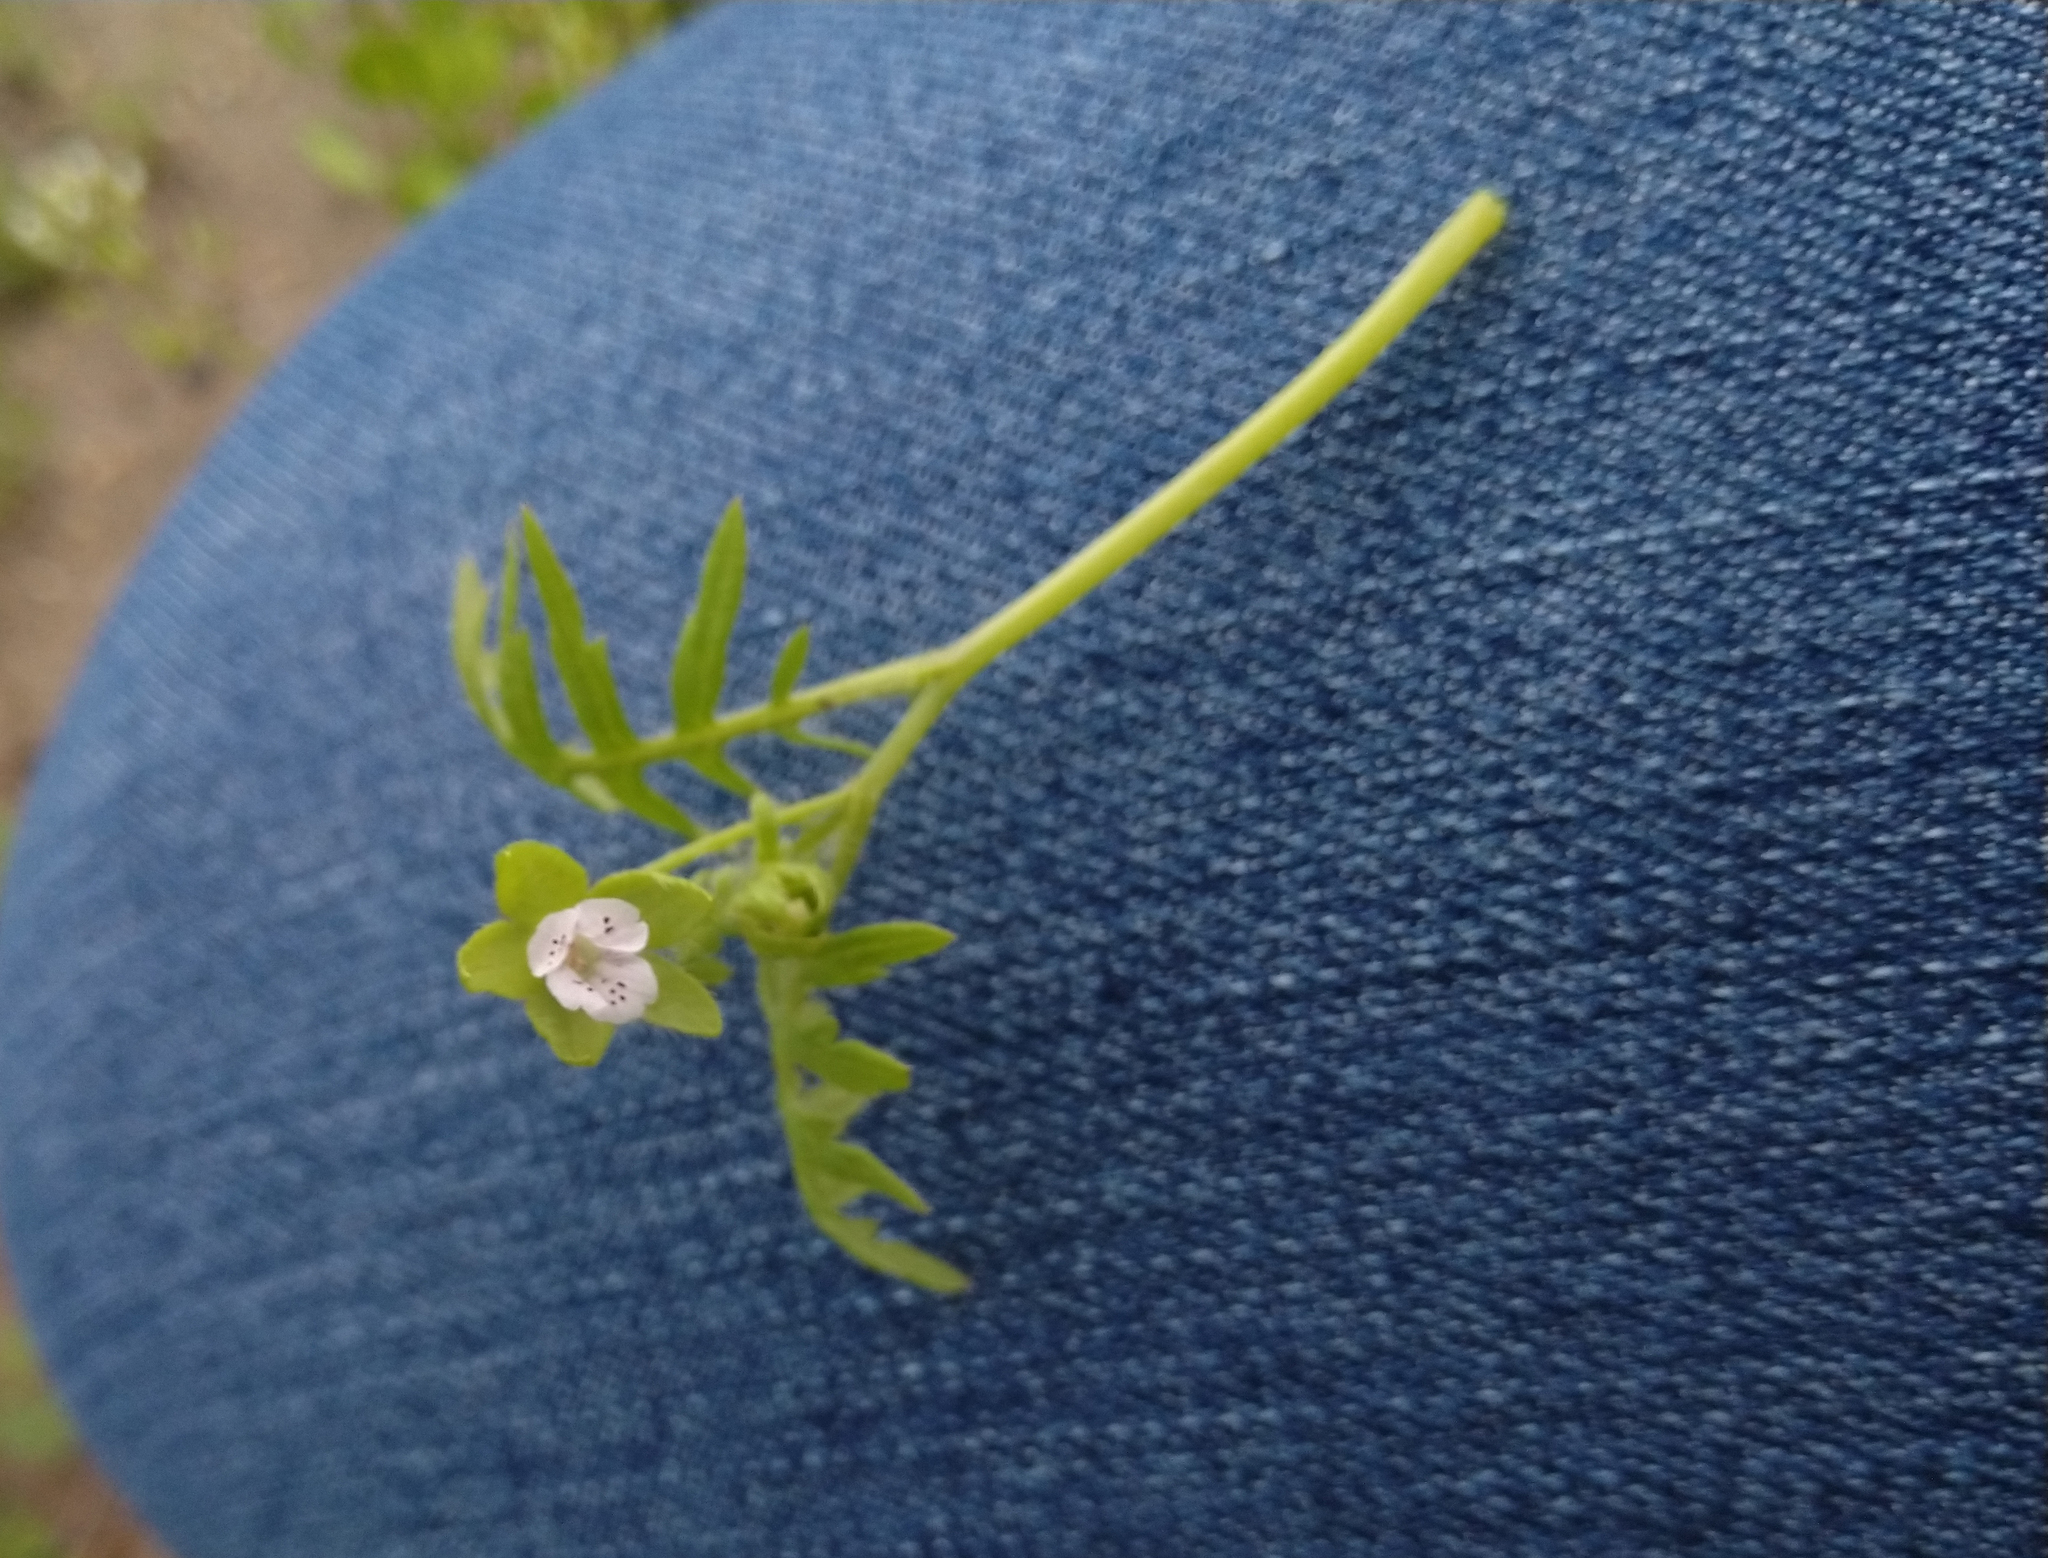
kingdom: Plantae
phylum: Tracheophyta
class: Magnoliopsida
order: Boraginales
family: Hydrophyllaceae
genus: Ellisia
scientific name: Ellisia nyctelea
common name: Aunt lucy
